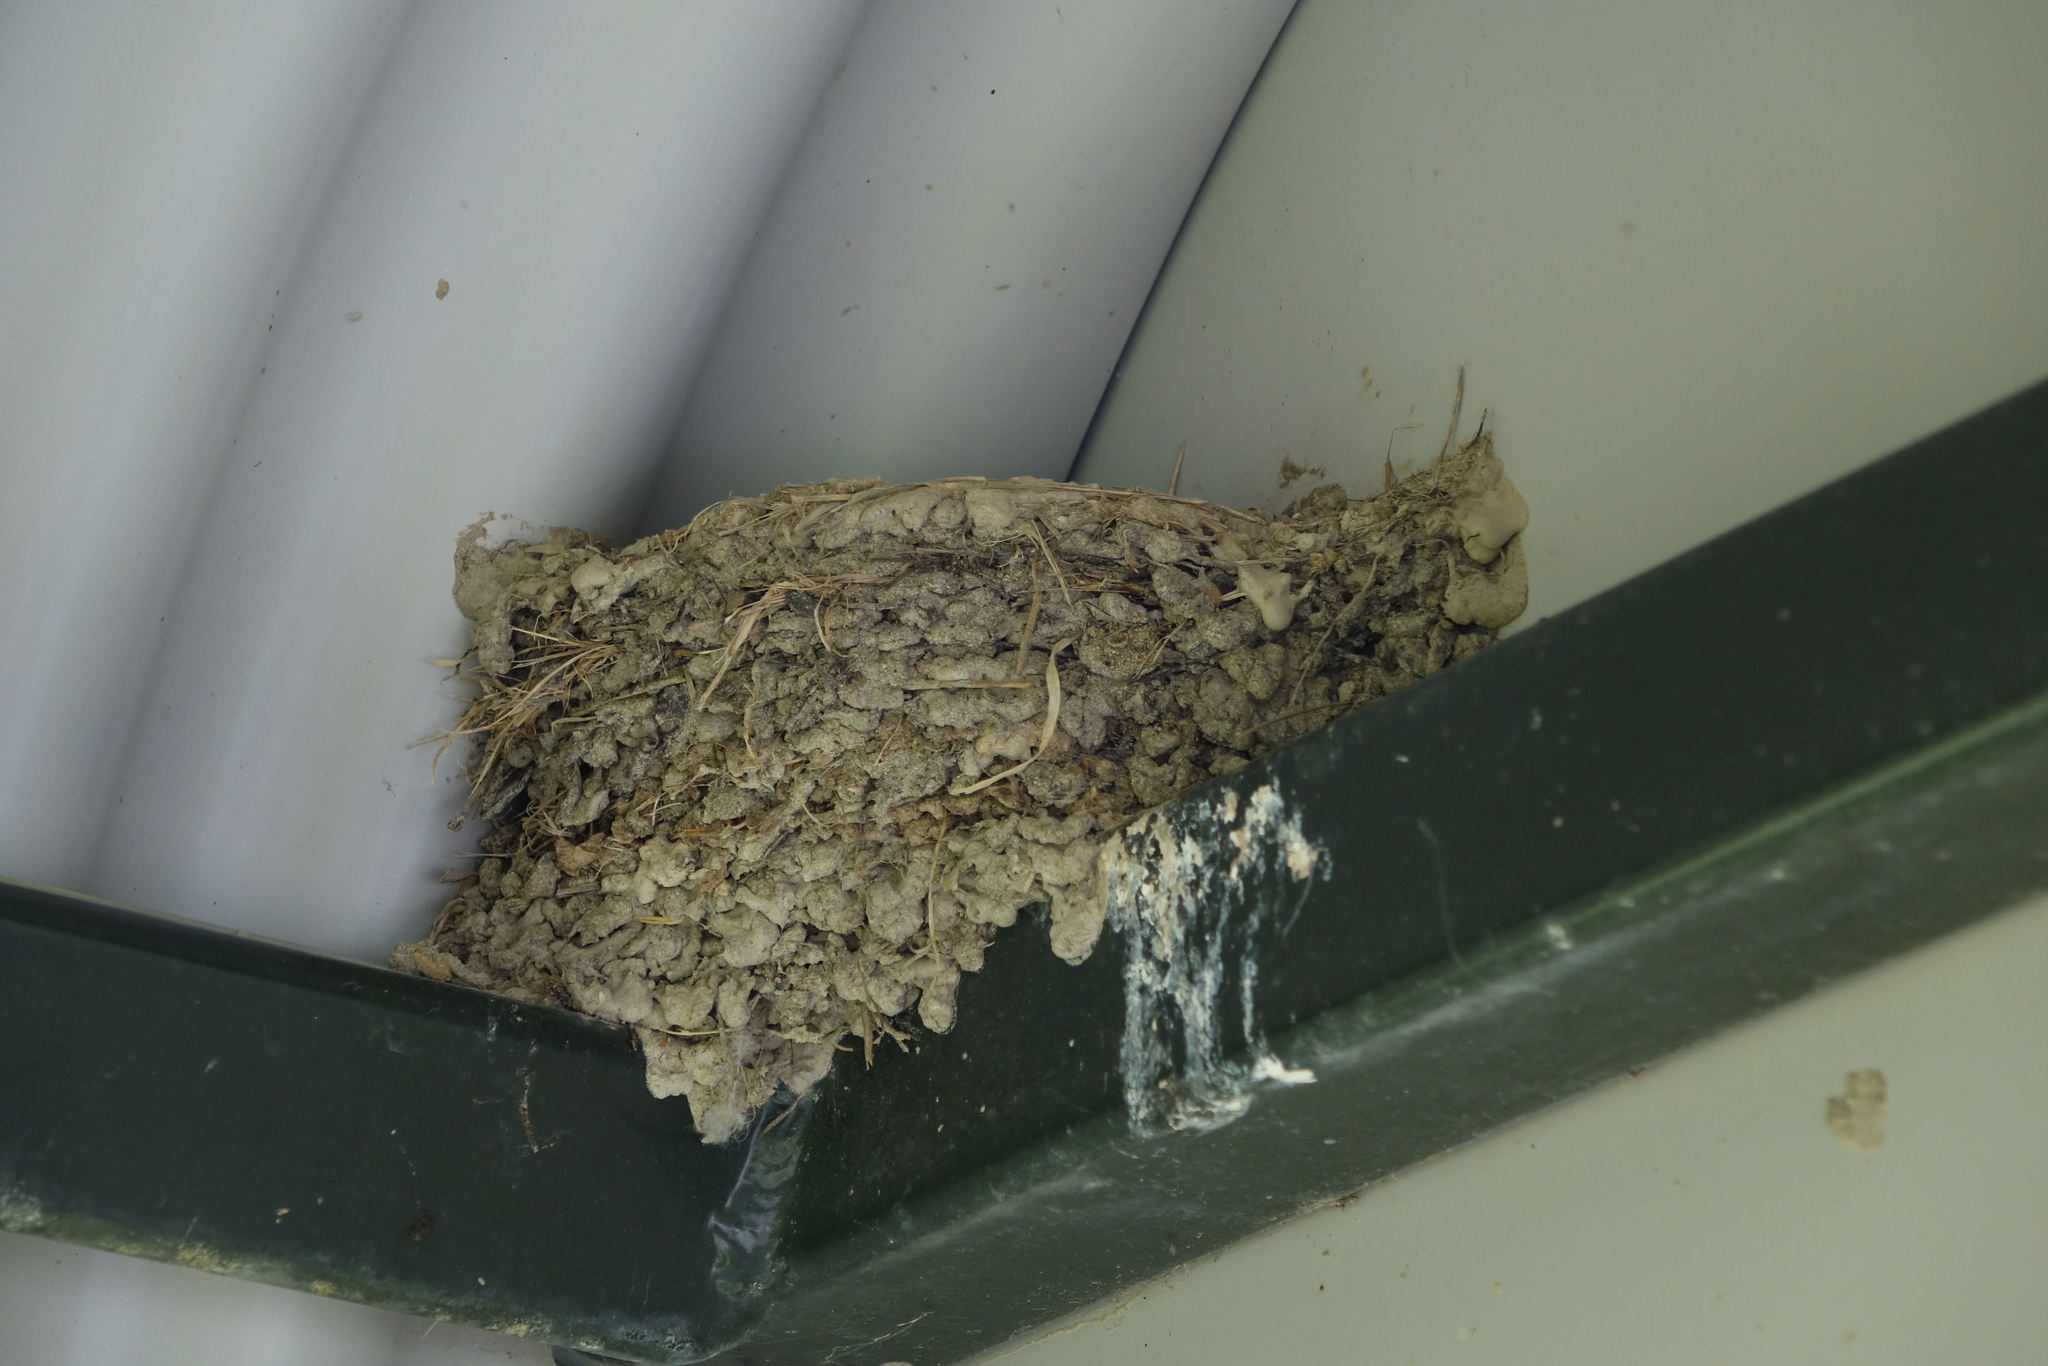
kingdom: Animalia
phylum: Chordata
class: Aves
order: Passeriformes
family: Hirundinidae
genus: Hirundo
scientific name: Hirundo neoxena
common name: Welcome swallow
